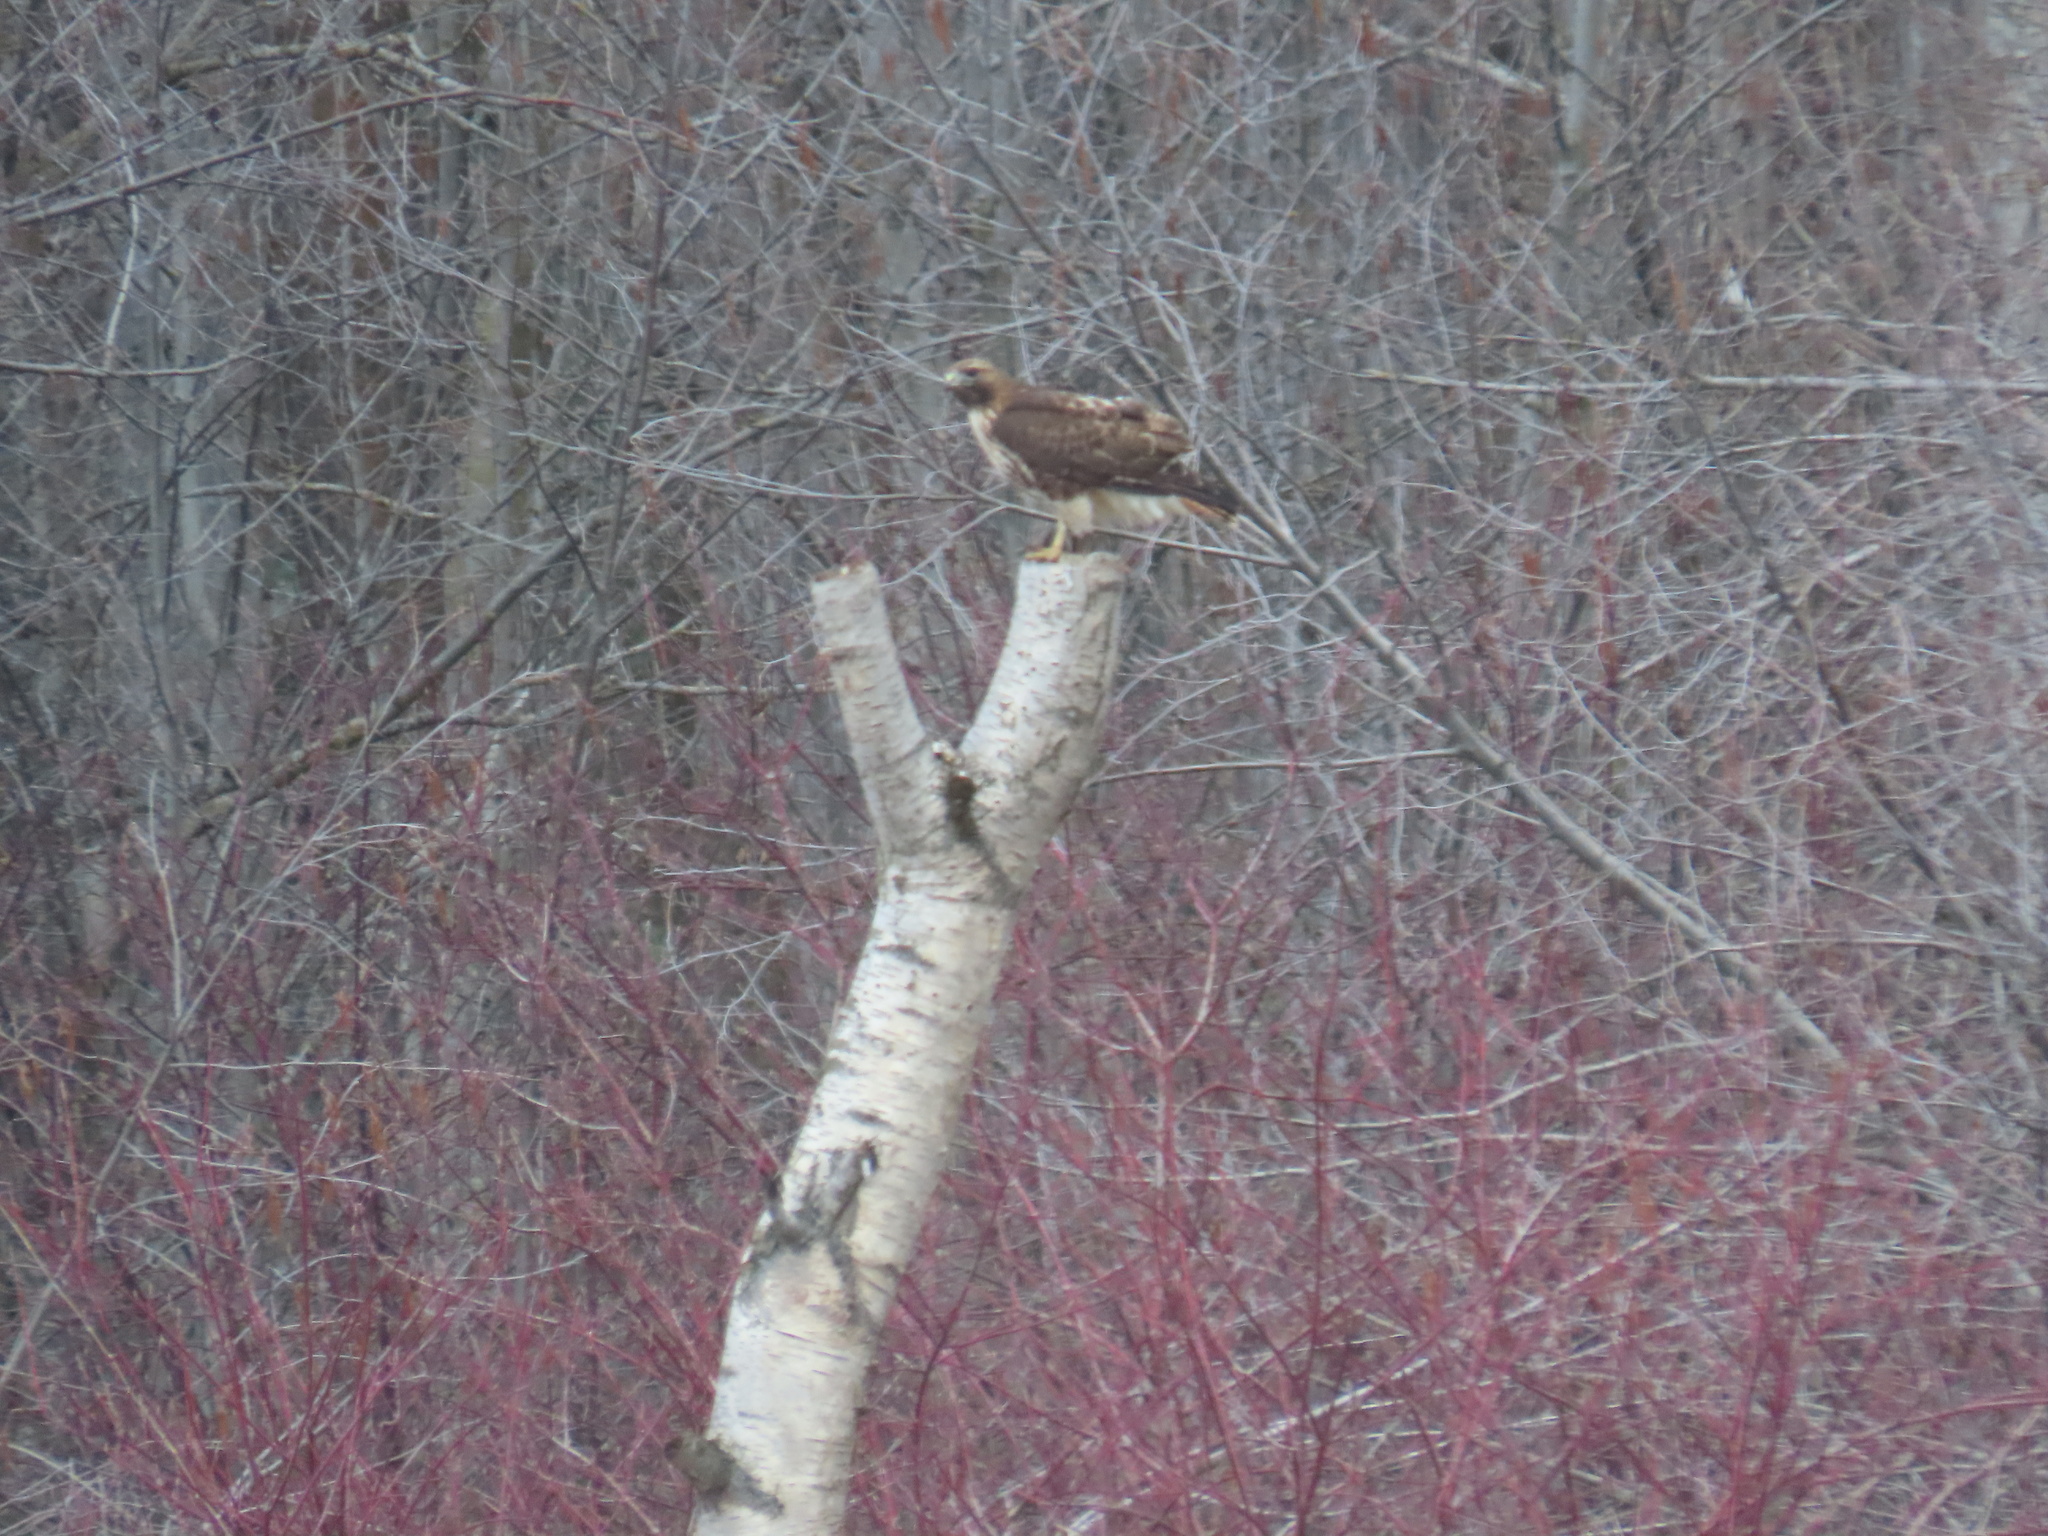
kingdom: Animalia
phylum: Chordata
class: Aves
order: Accipitriformes
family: Accipitridae
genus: Buteo
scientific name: Buteo jamaicensis
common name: Red-tailed hawk
